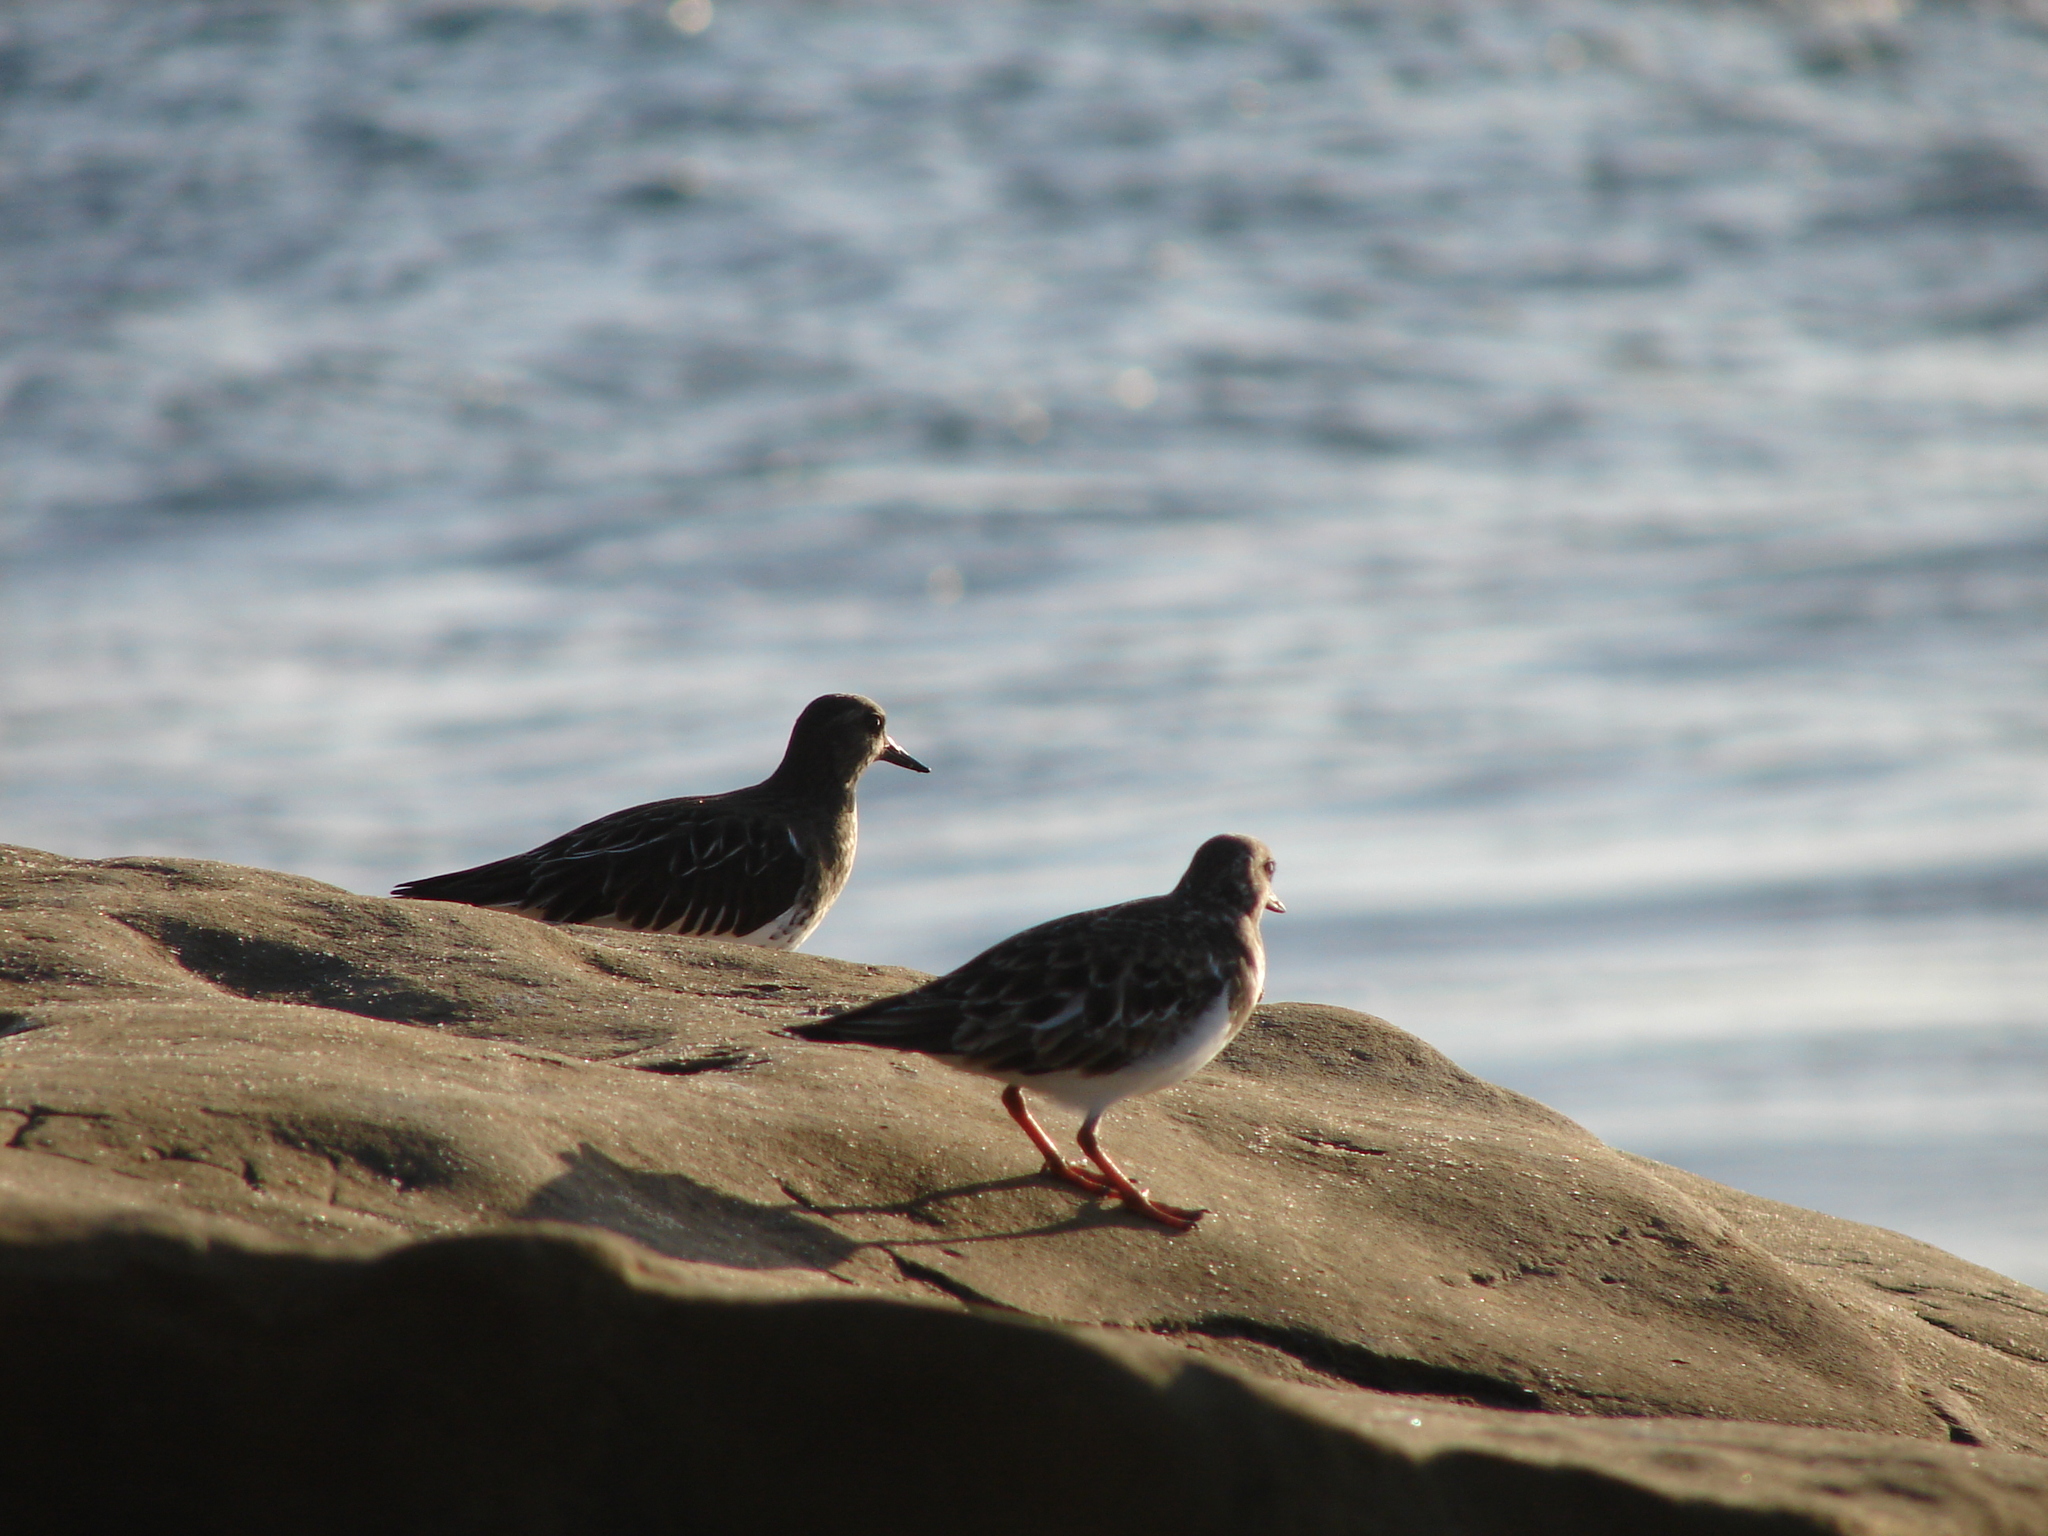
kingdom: Animalia
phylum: Chordata
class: Aves
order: Charadriiformes
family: Scolopacidae
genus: Arenaria
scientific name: Arenaria melanocephala
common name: Black turnstone
